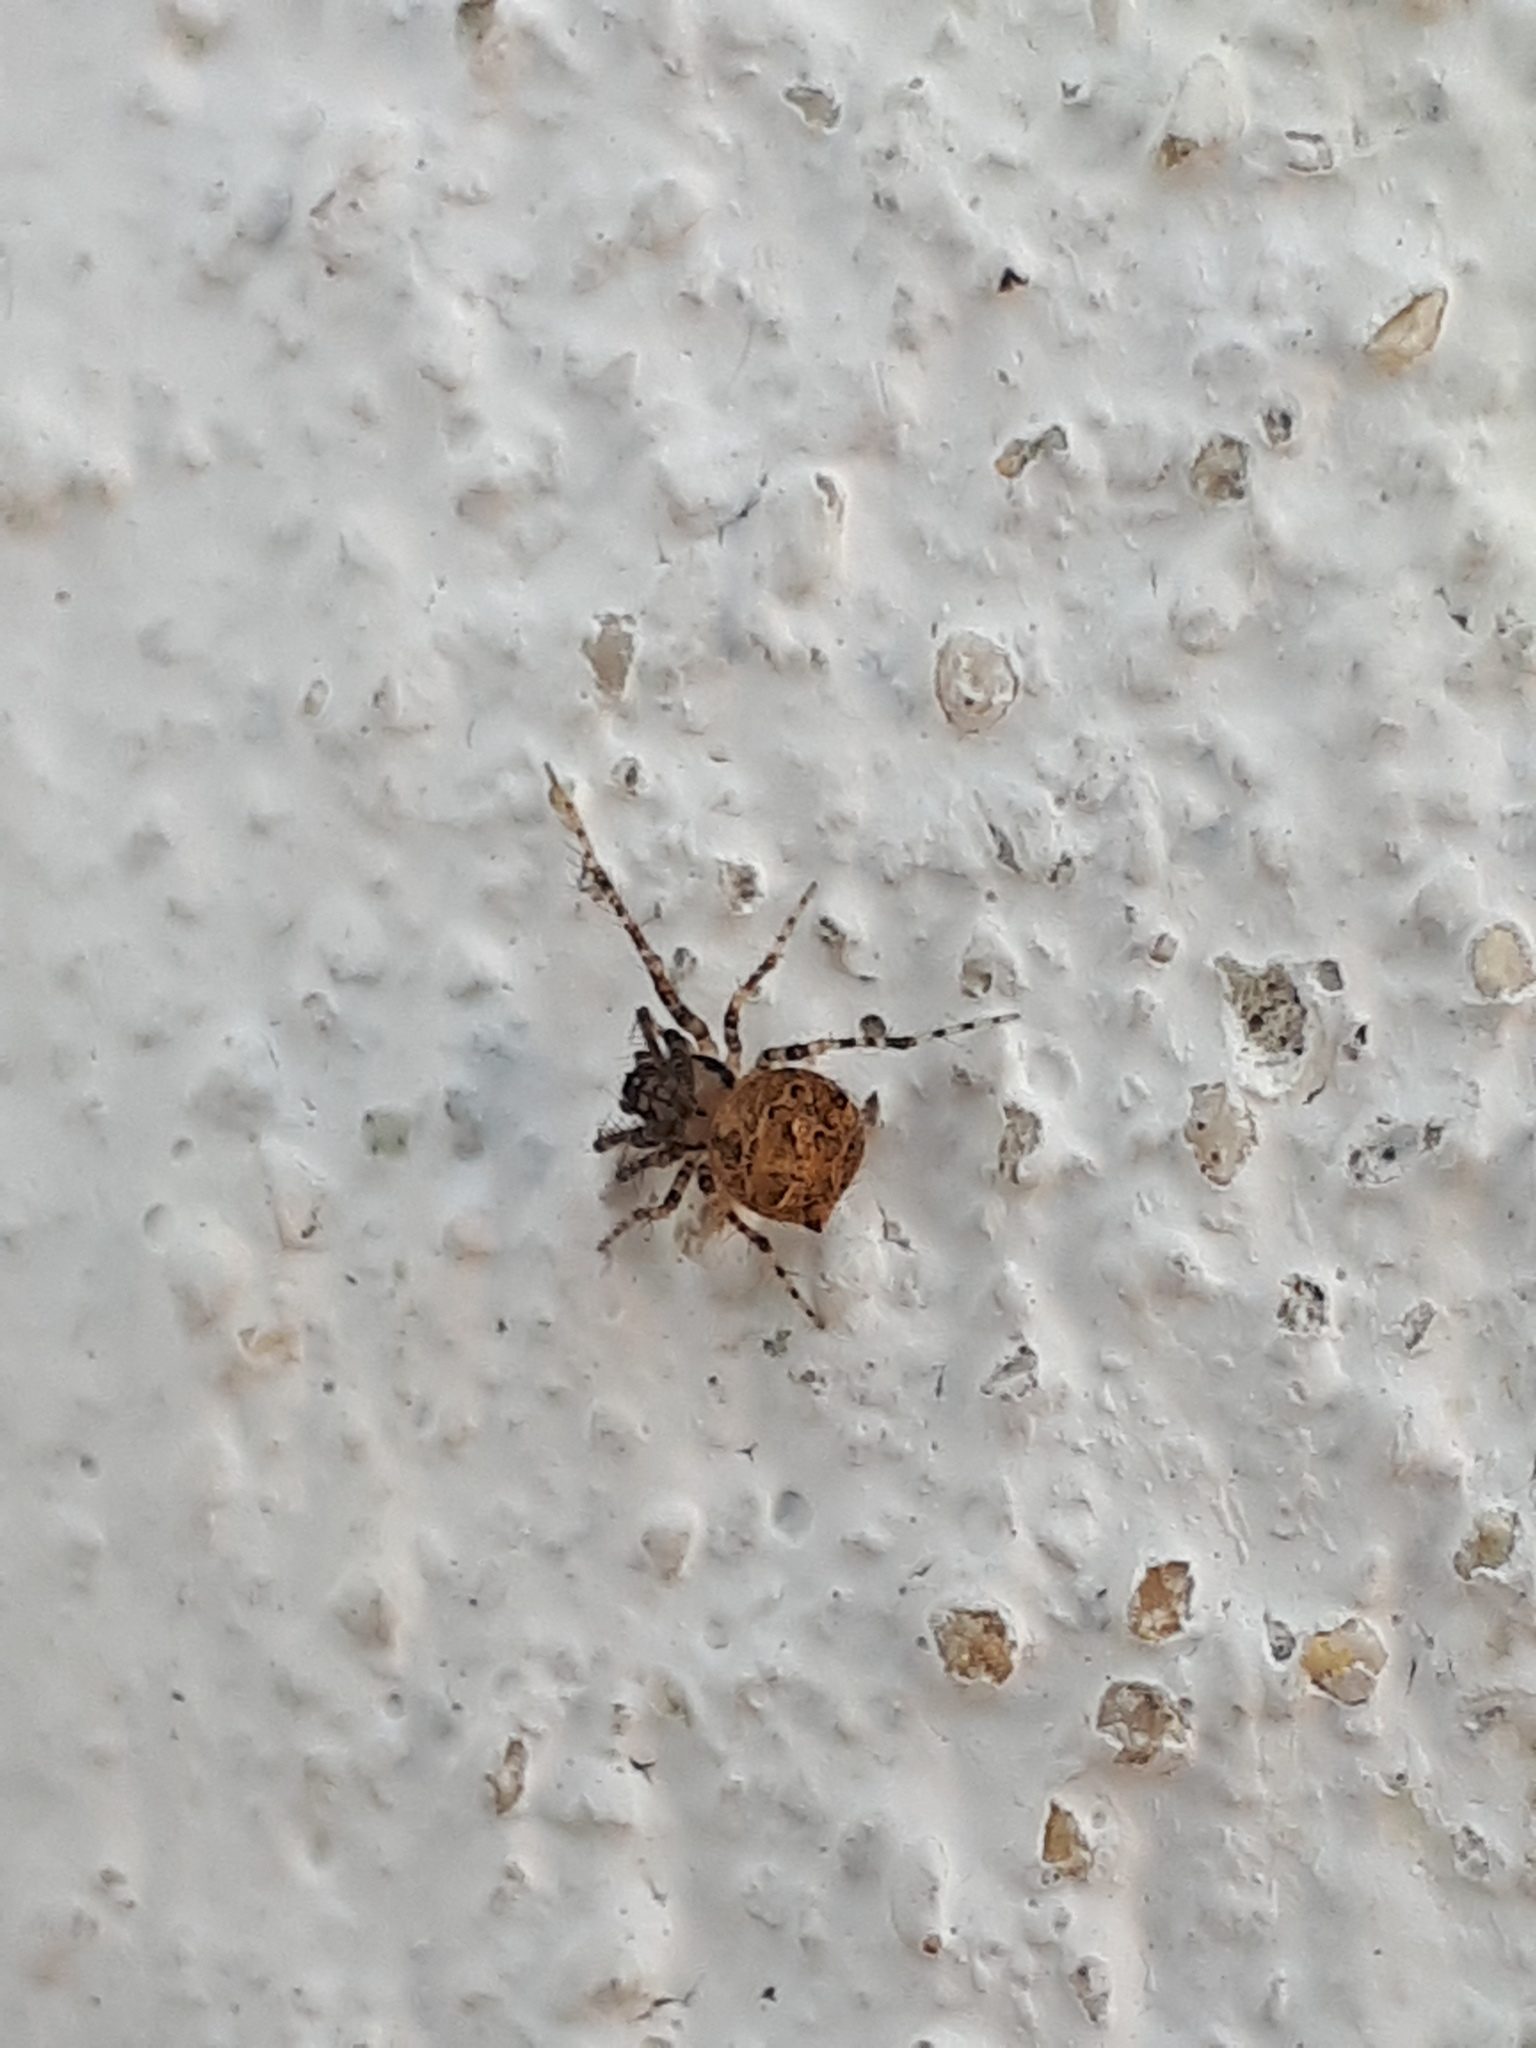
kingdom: Animalia
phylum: Arthropoda
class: Arachnida
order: Araneae
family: Mimetidae
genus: Ero
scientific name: Ero aphana
